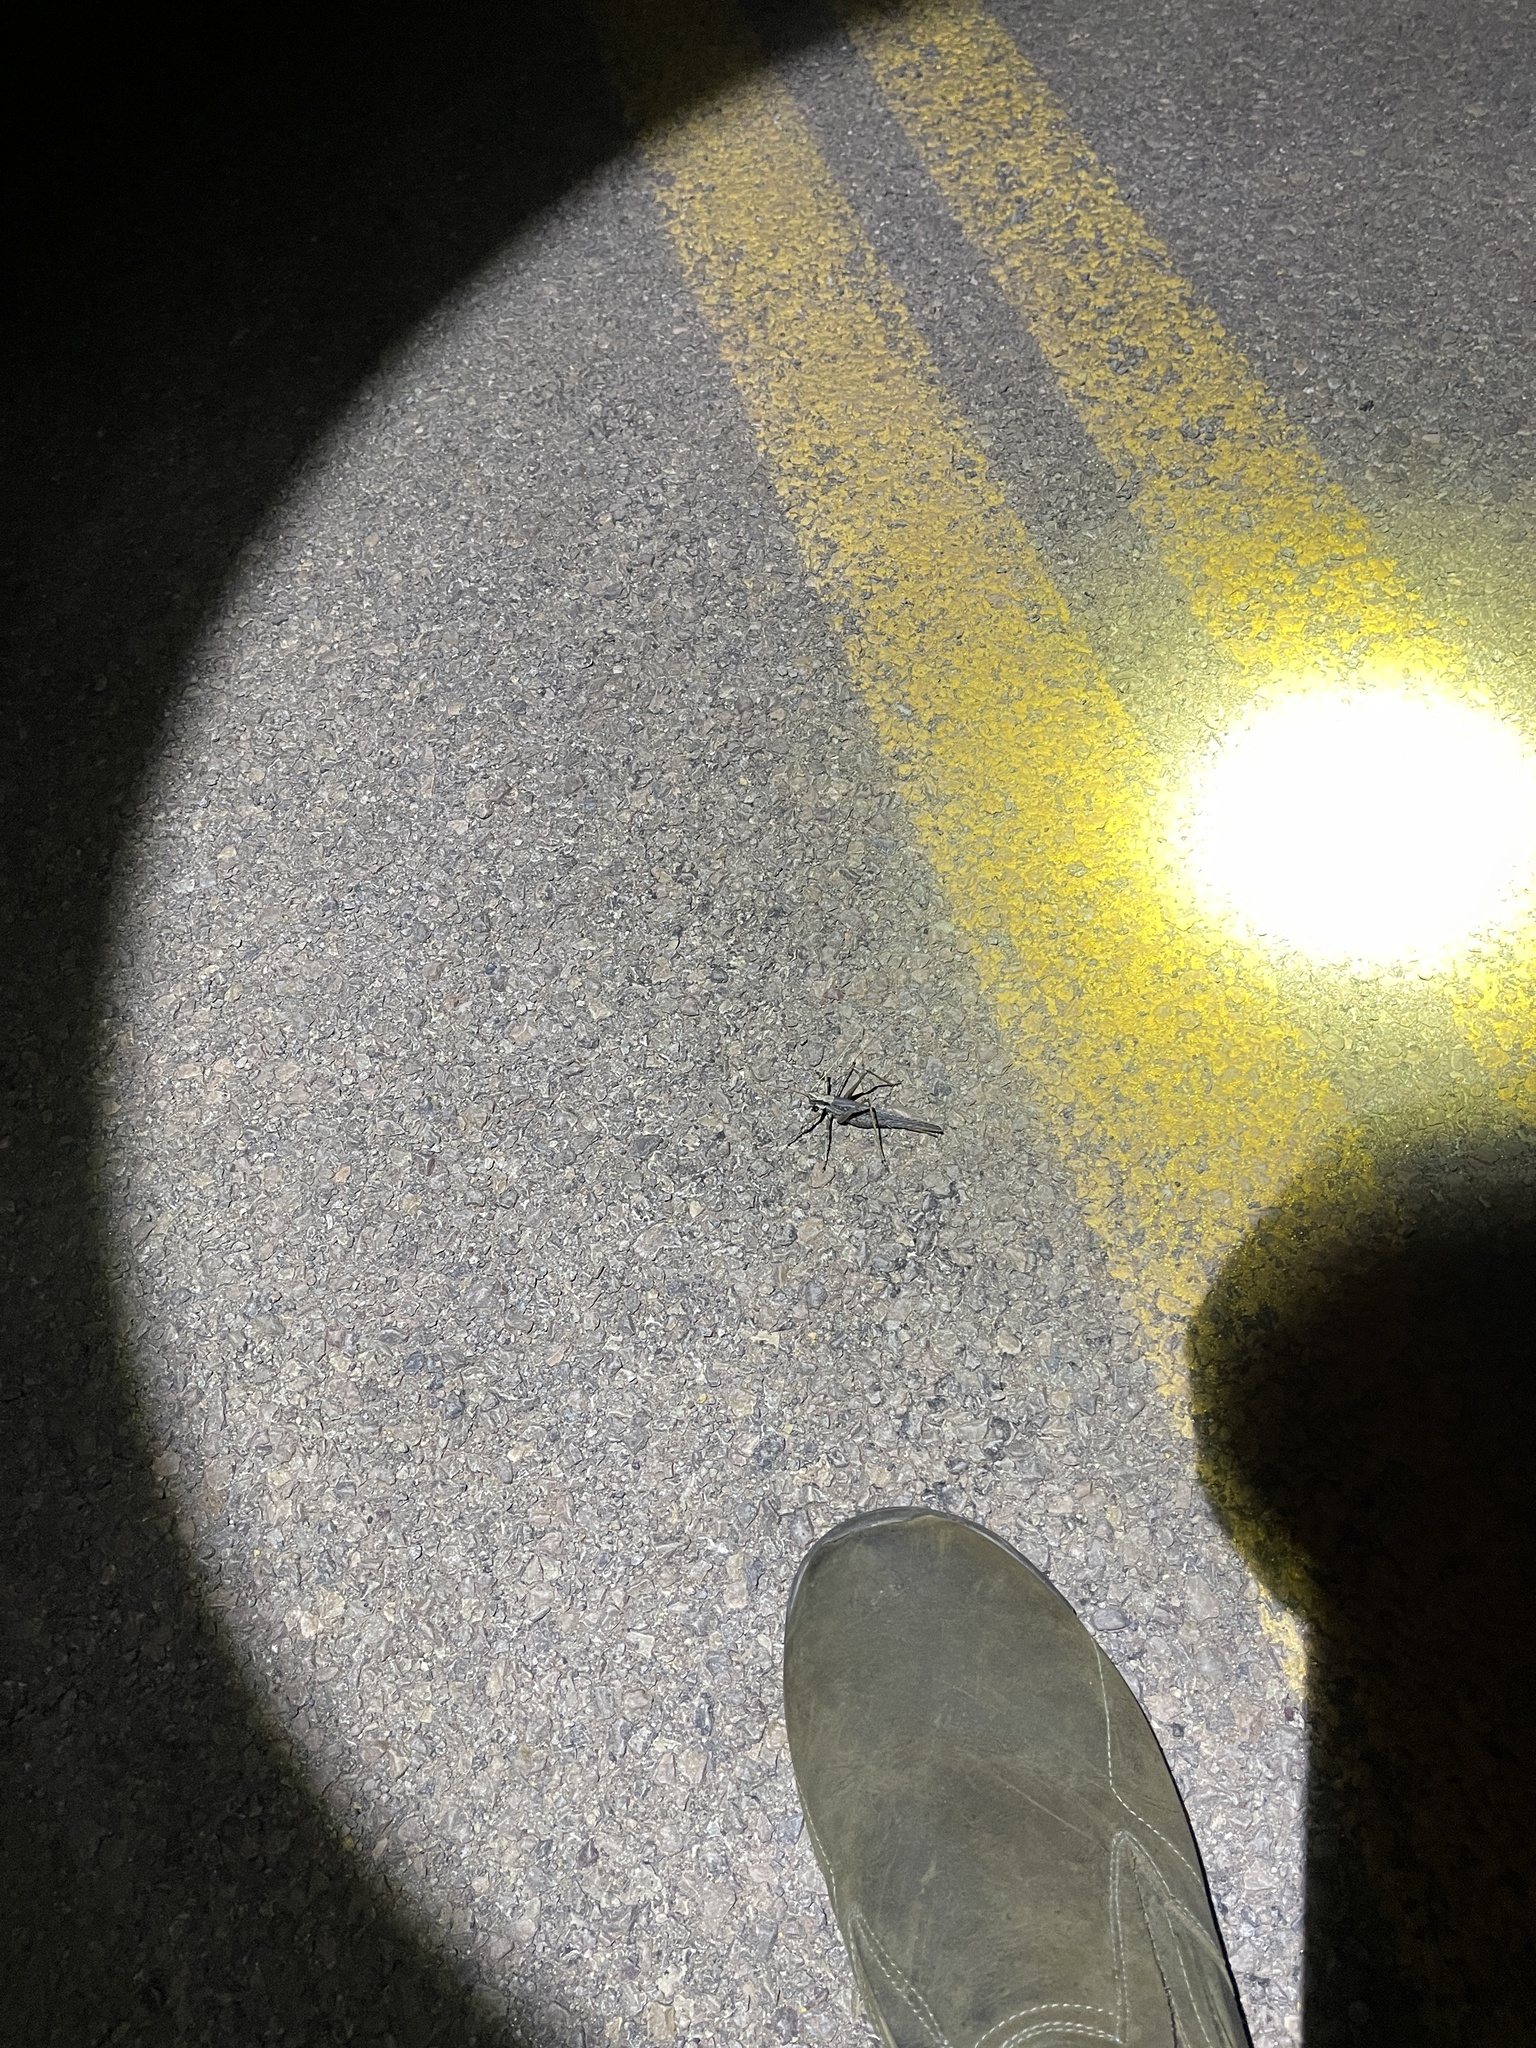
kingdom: Animalia
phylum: Arthropoda
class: Insecta
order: Orthoptera
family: Tettigoniidae
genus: Capnobotes
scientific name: Capnobotes fuliginosus
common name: Sooty longwing
